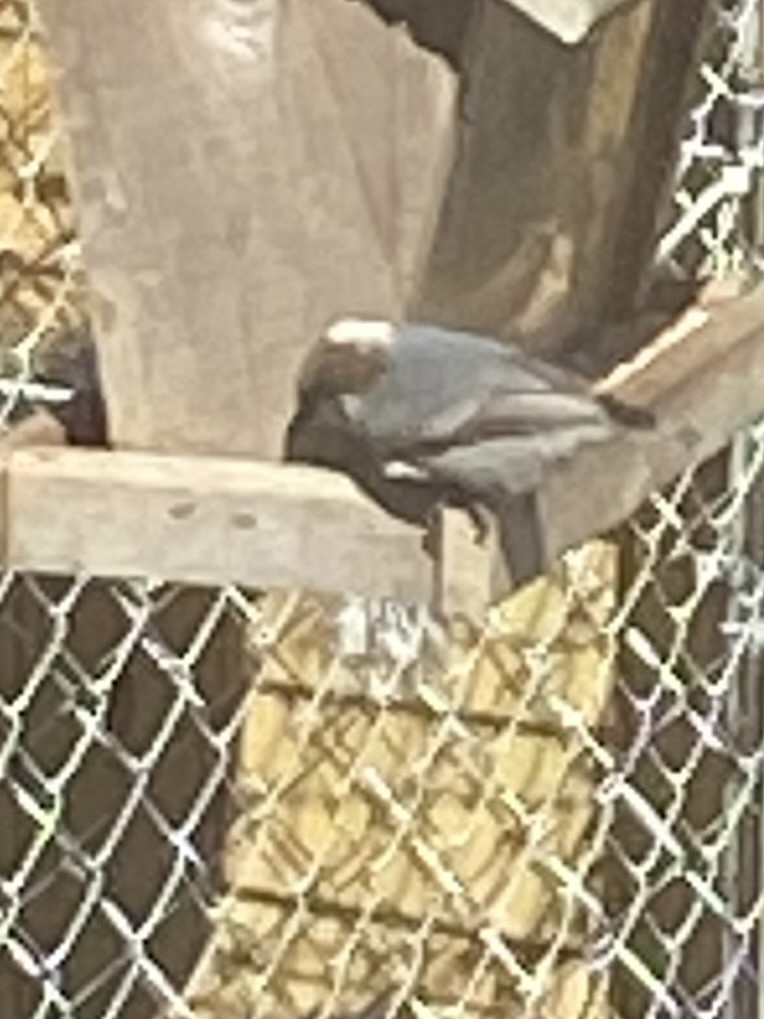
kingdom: Animalia
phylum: Chordata
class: Aves
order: Passeriformes
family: Sittidae
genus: Sitta
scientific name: Sitta pusilla
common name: Brown-headed nuthatch
